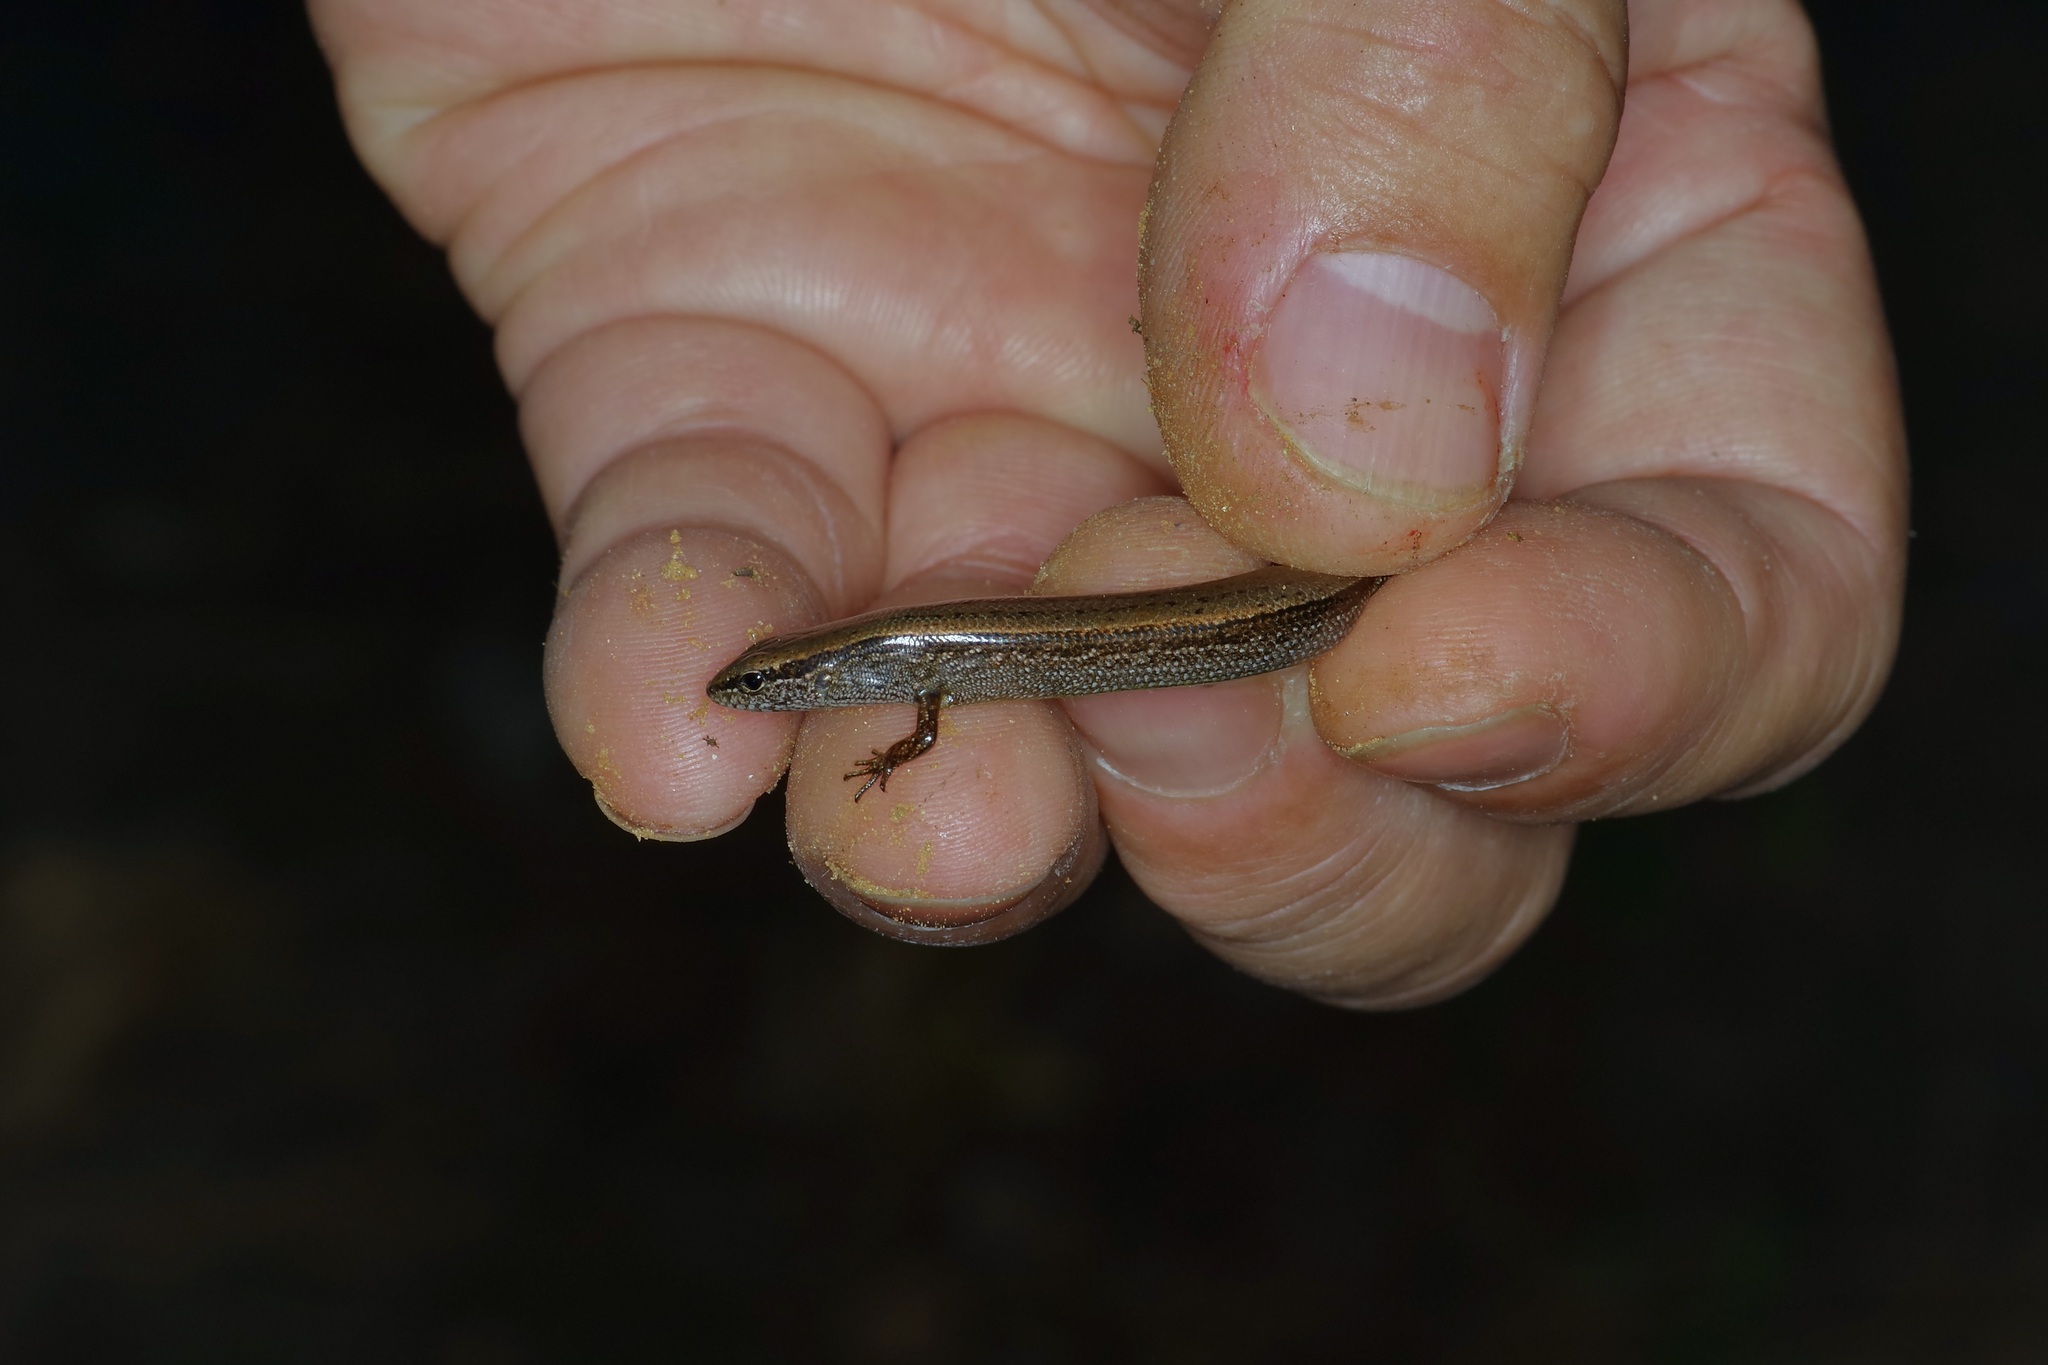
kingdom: Animalia
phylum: Chordata
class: Squamata
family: Scincidae
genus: Scincella
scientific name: Scincella lateralis
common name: Ground skink
